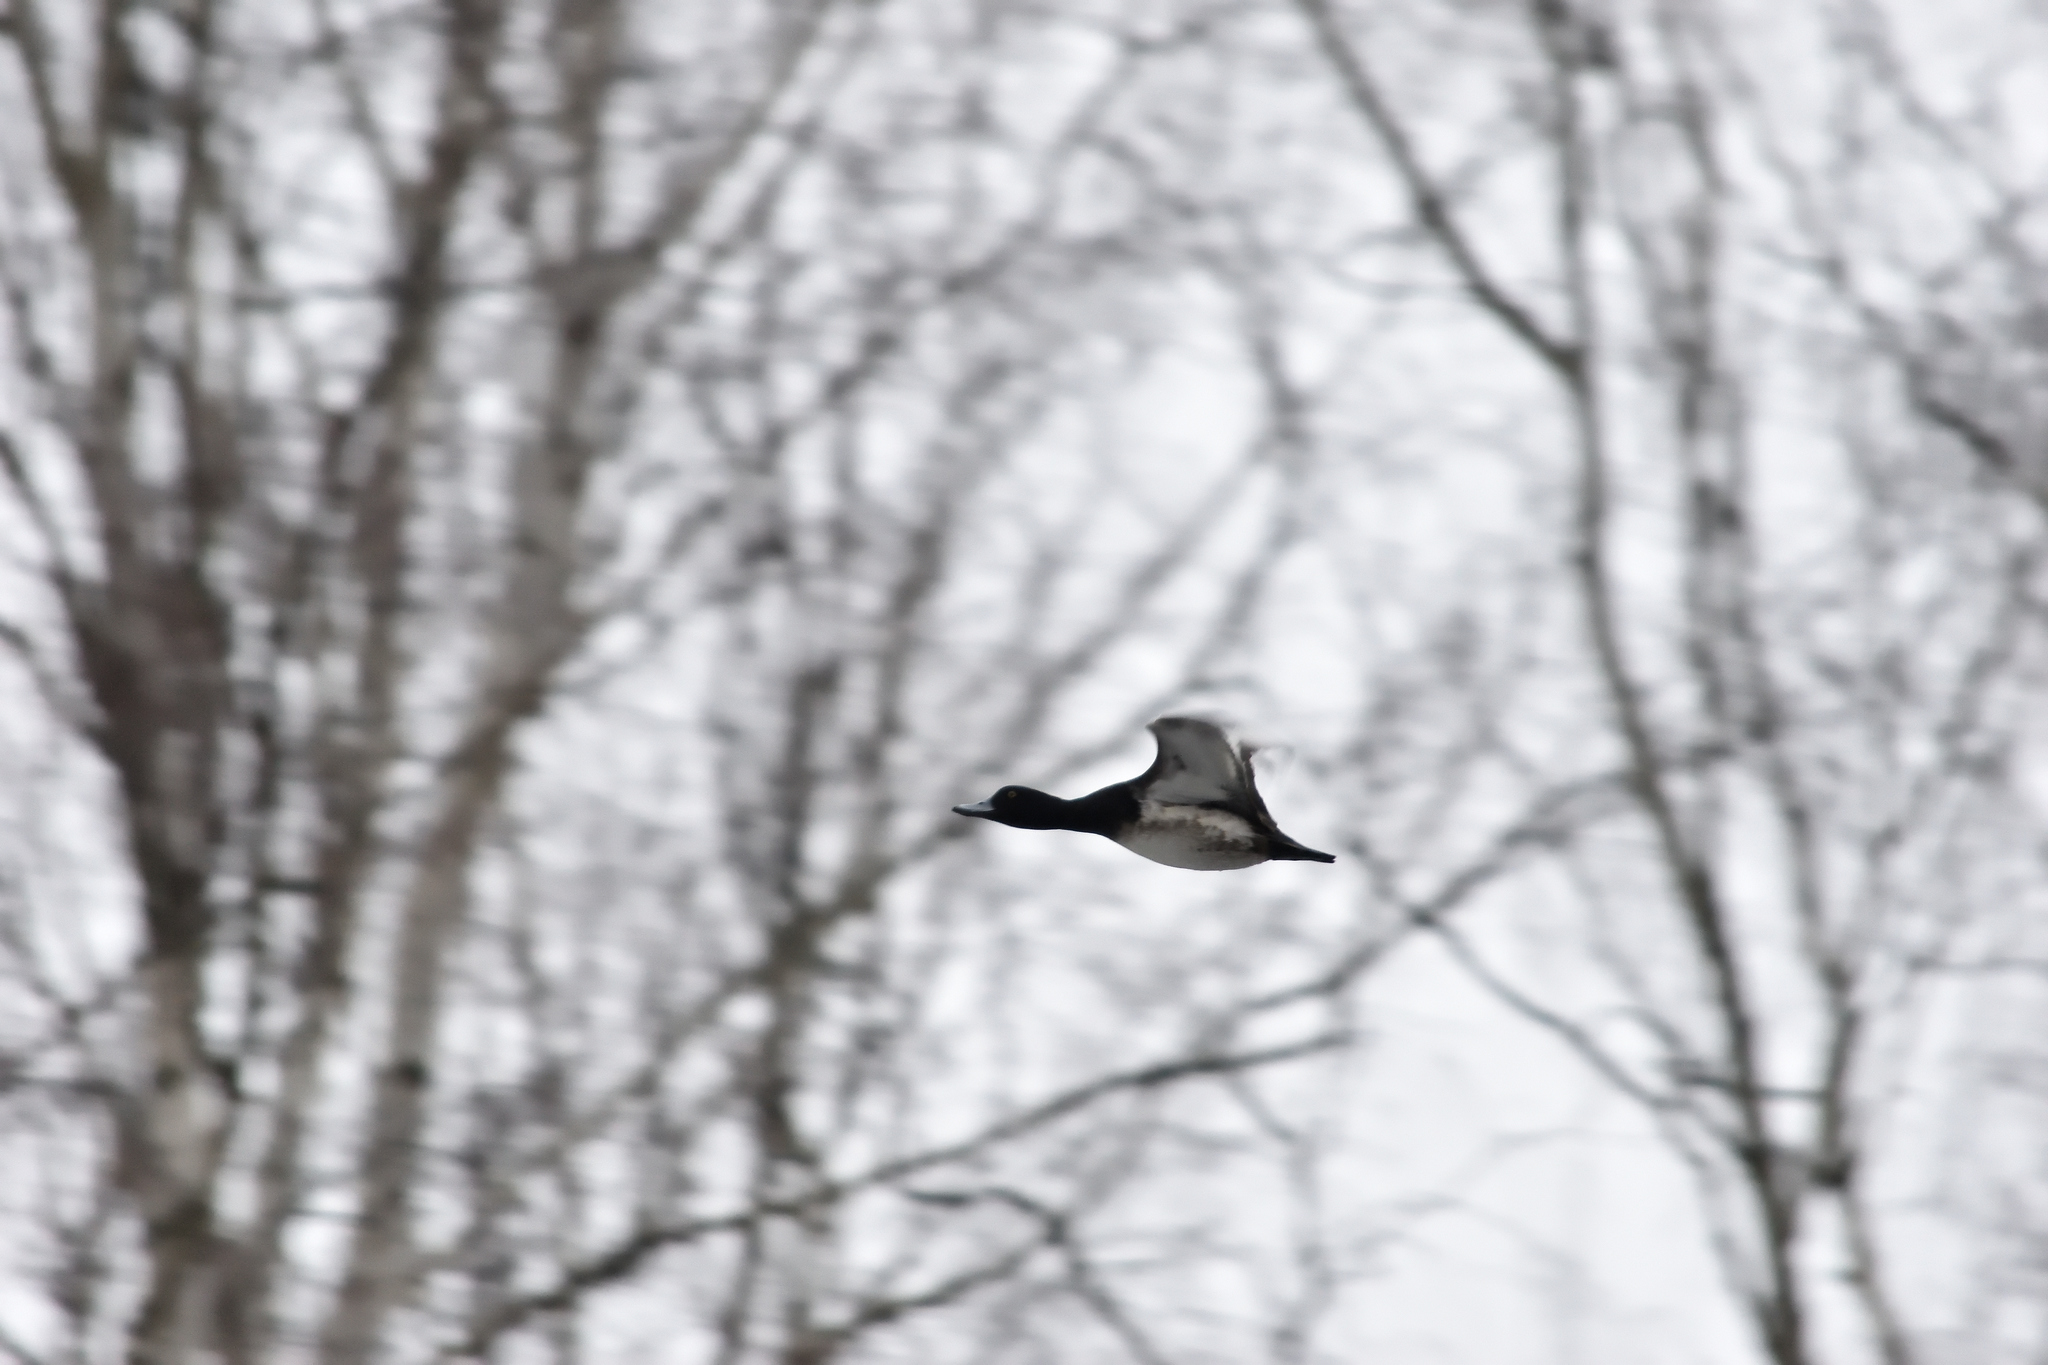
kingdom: Animalia
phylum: Chordata
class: Aves
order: Anseriformes
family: Anatidae
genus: Aythya
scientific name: Aythya fuligula
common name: Tufted duck
